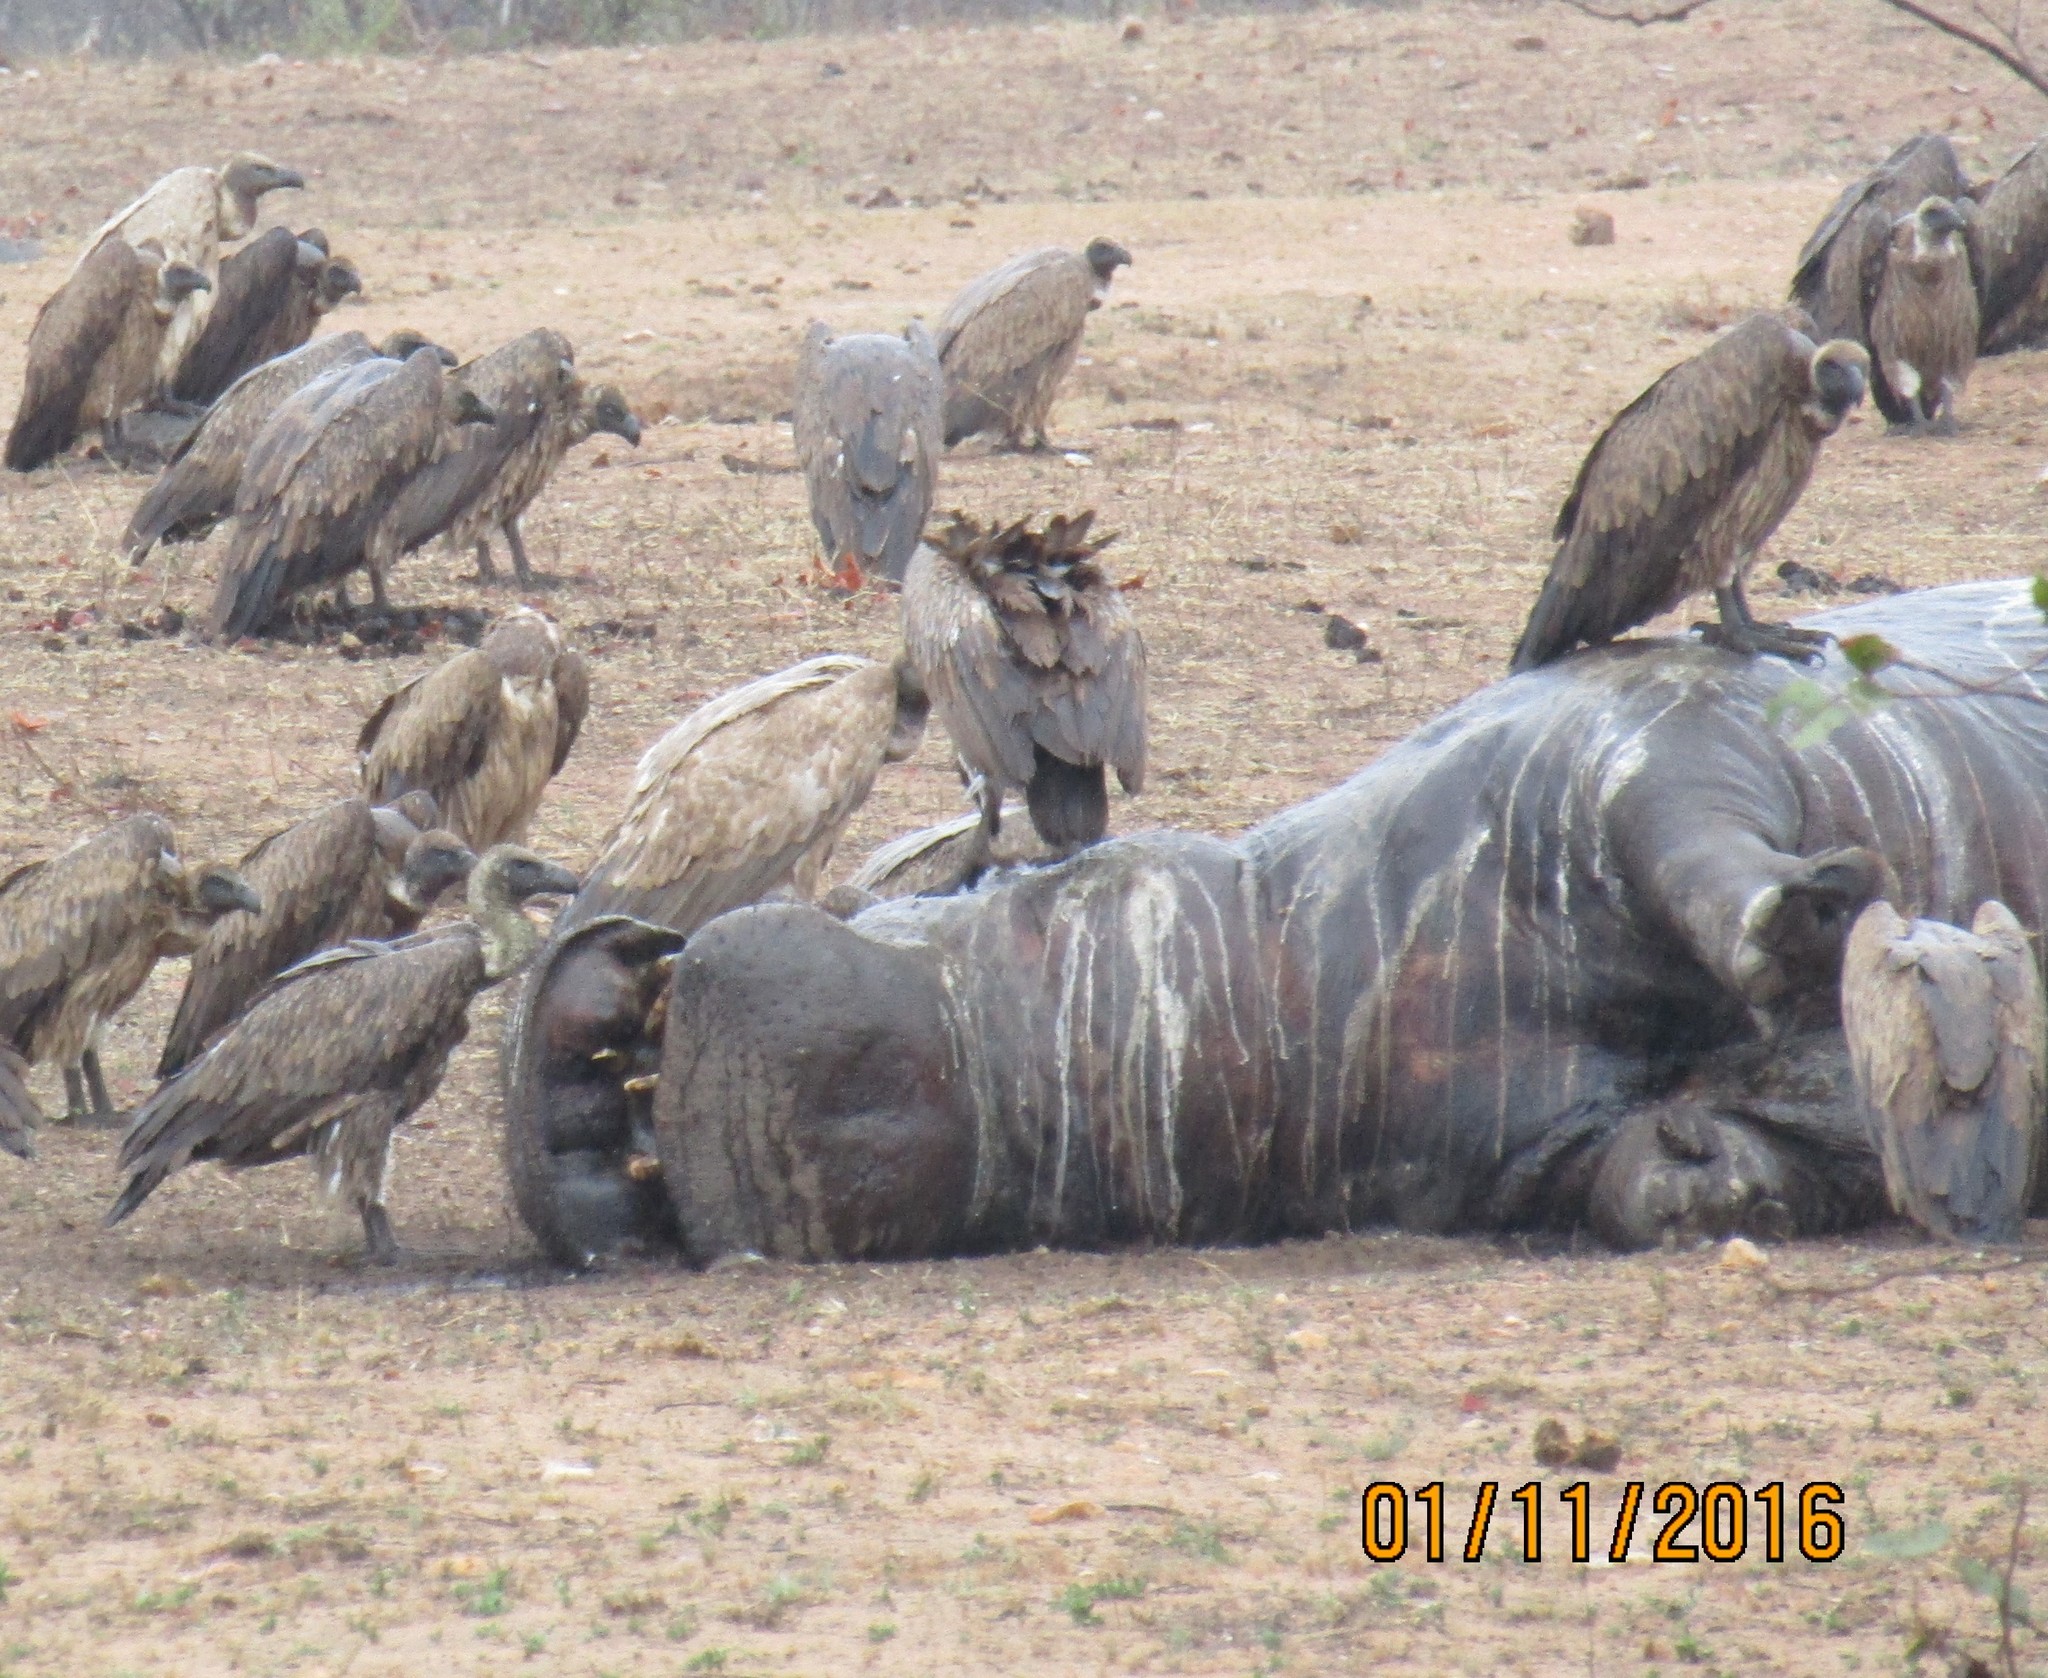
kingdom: Animalia
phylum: Chordata
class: Mammalia
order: Artiodactyla
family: Hippopotamidae
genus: Hippopotamus
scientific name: Hippopotamus amphibius
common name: Common hippopotamus
